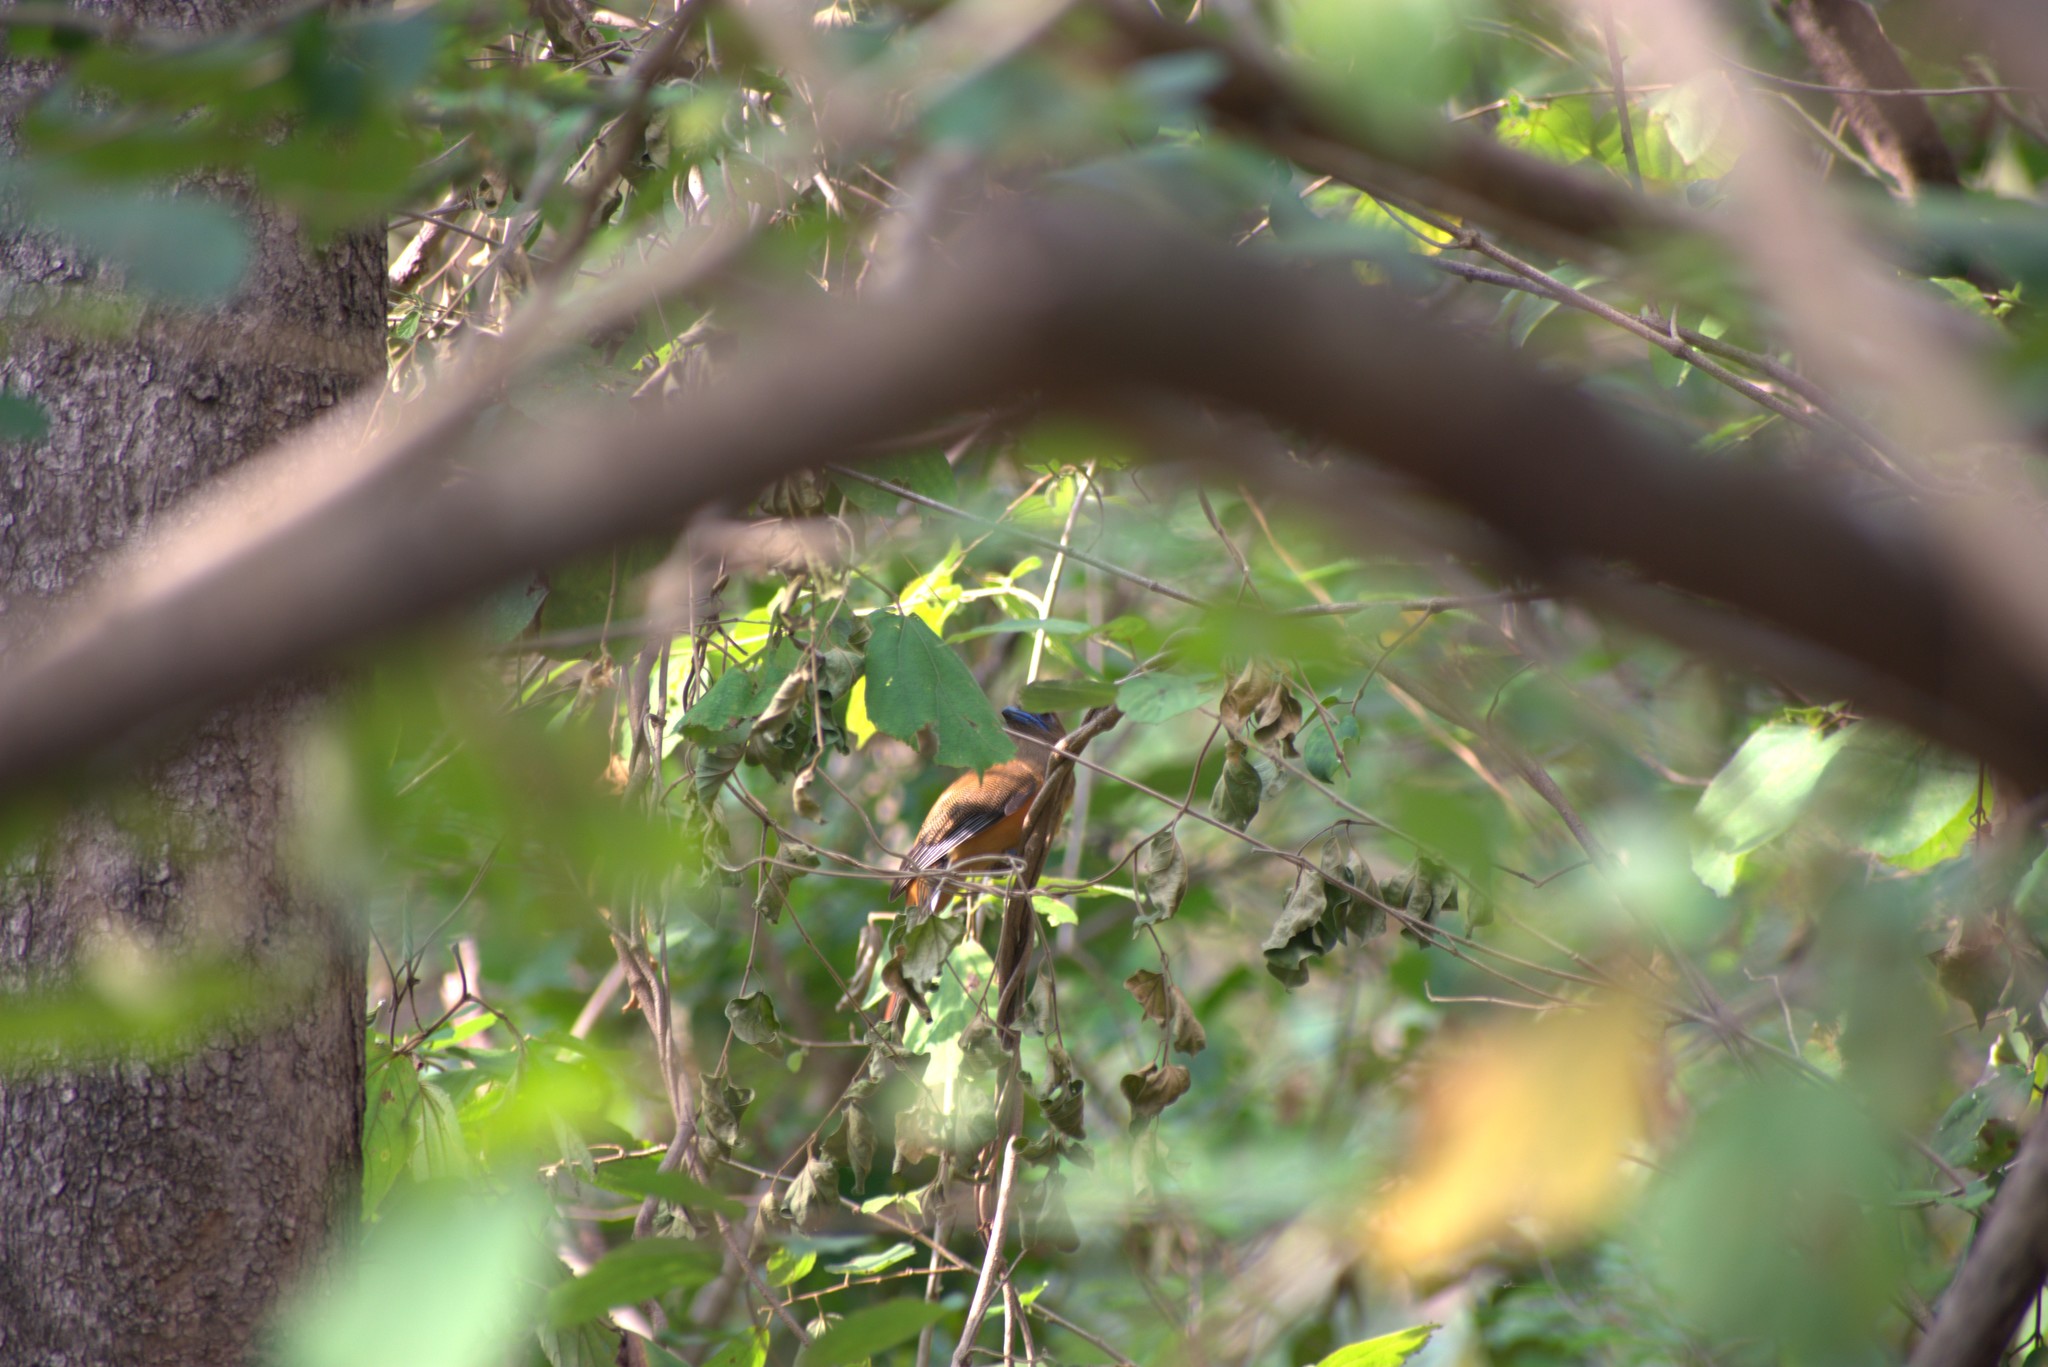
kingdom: Animalia
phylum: Chordata
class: Aves
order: Trogoniformes
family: Trogonidae
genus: Harpactes
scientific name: Harpactes fasciatus
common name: Malabar trogon
